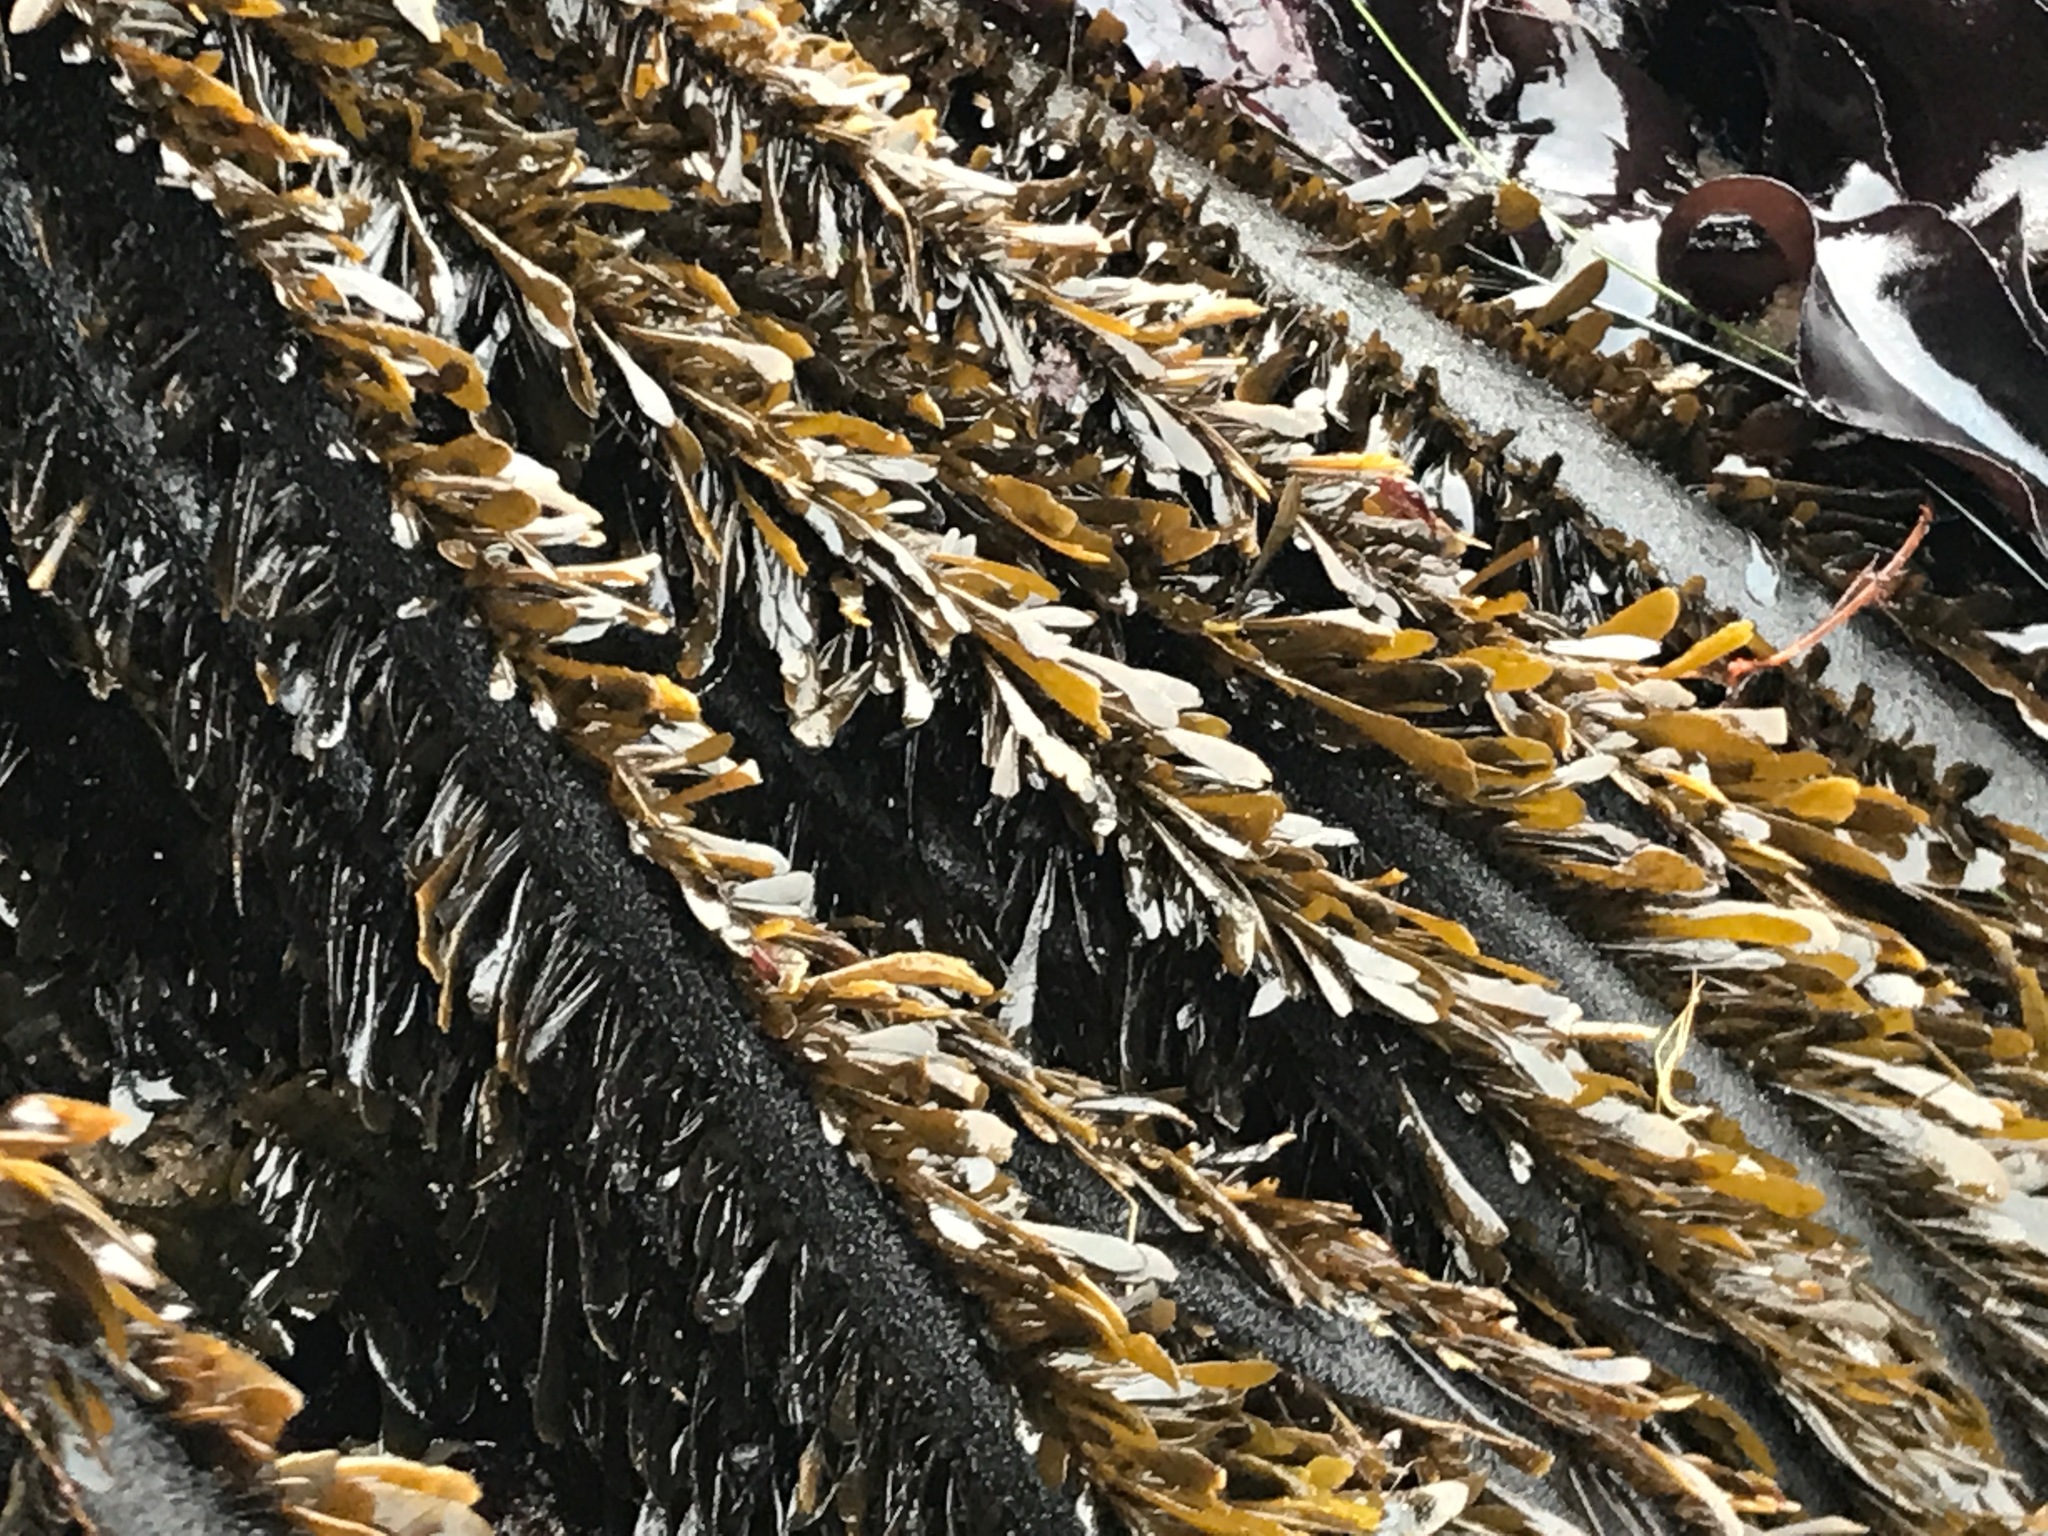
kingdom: Chromista
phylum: Ochrophyta
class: Phaeophyceae
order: Laminariales
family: Lessoniaceae
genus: Egregia
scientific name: Egregia menziesii
